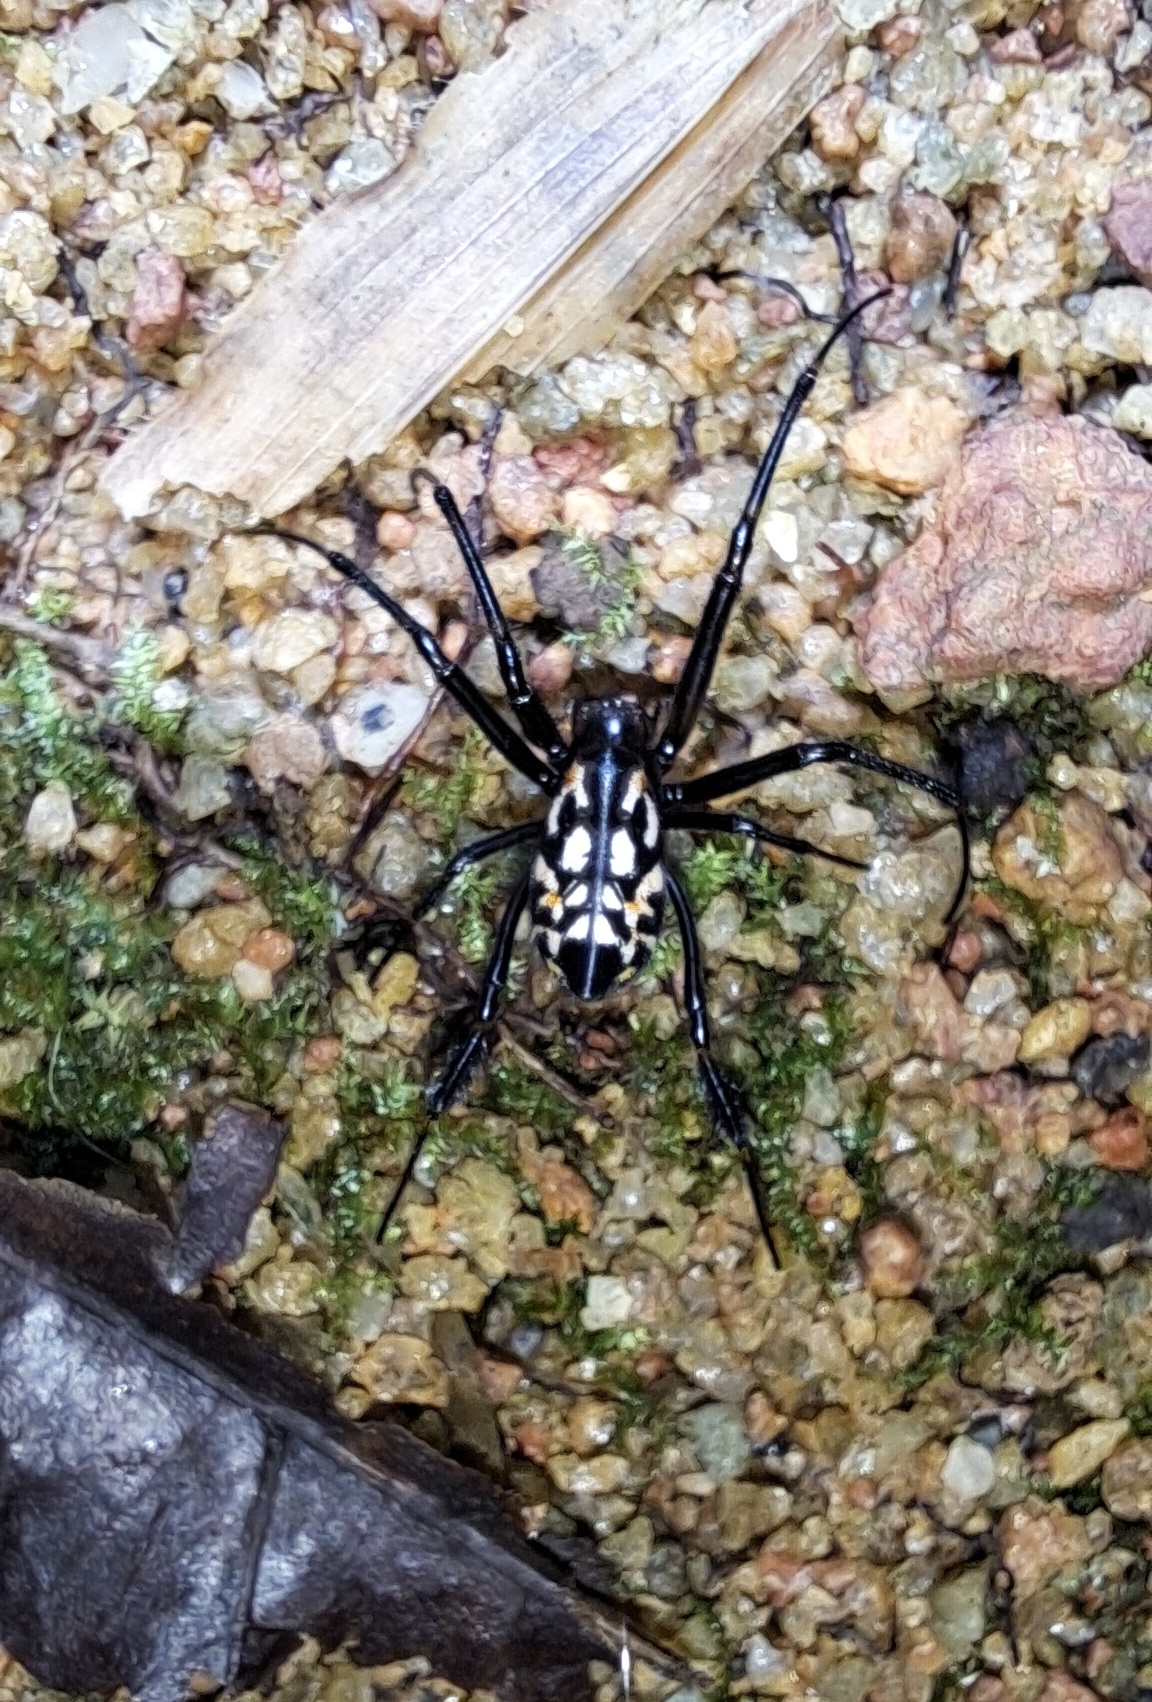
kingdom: Animalia
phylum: Arthropoda
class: Arachnida
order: Araneae
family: Tetragnathidae
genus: Leucauge
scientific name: Leucauge fastigata
